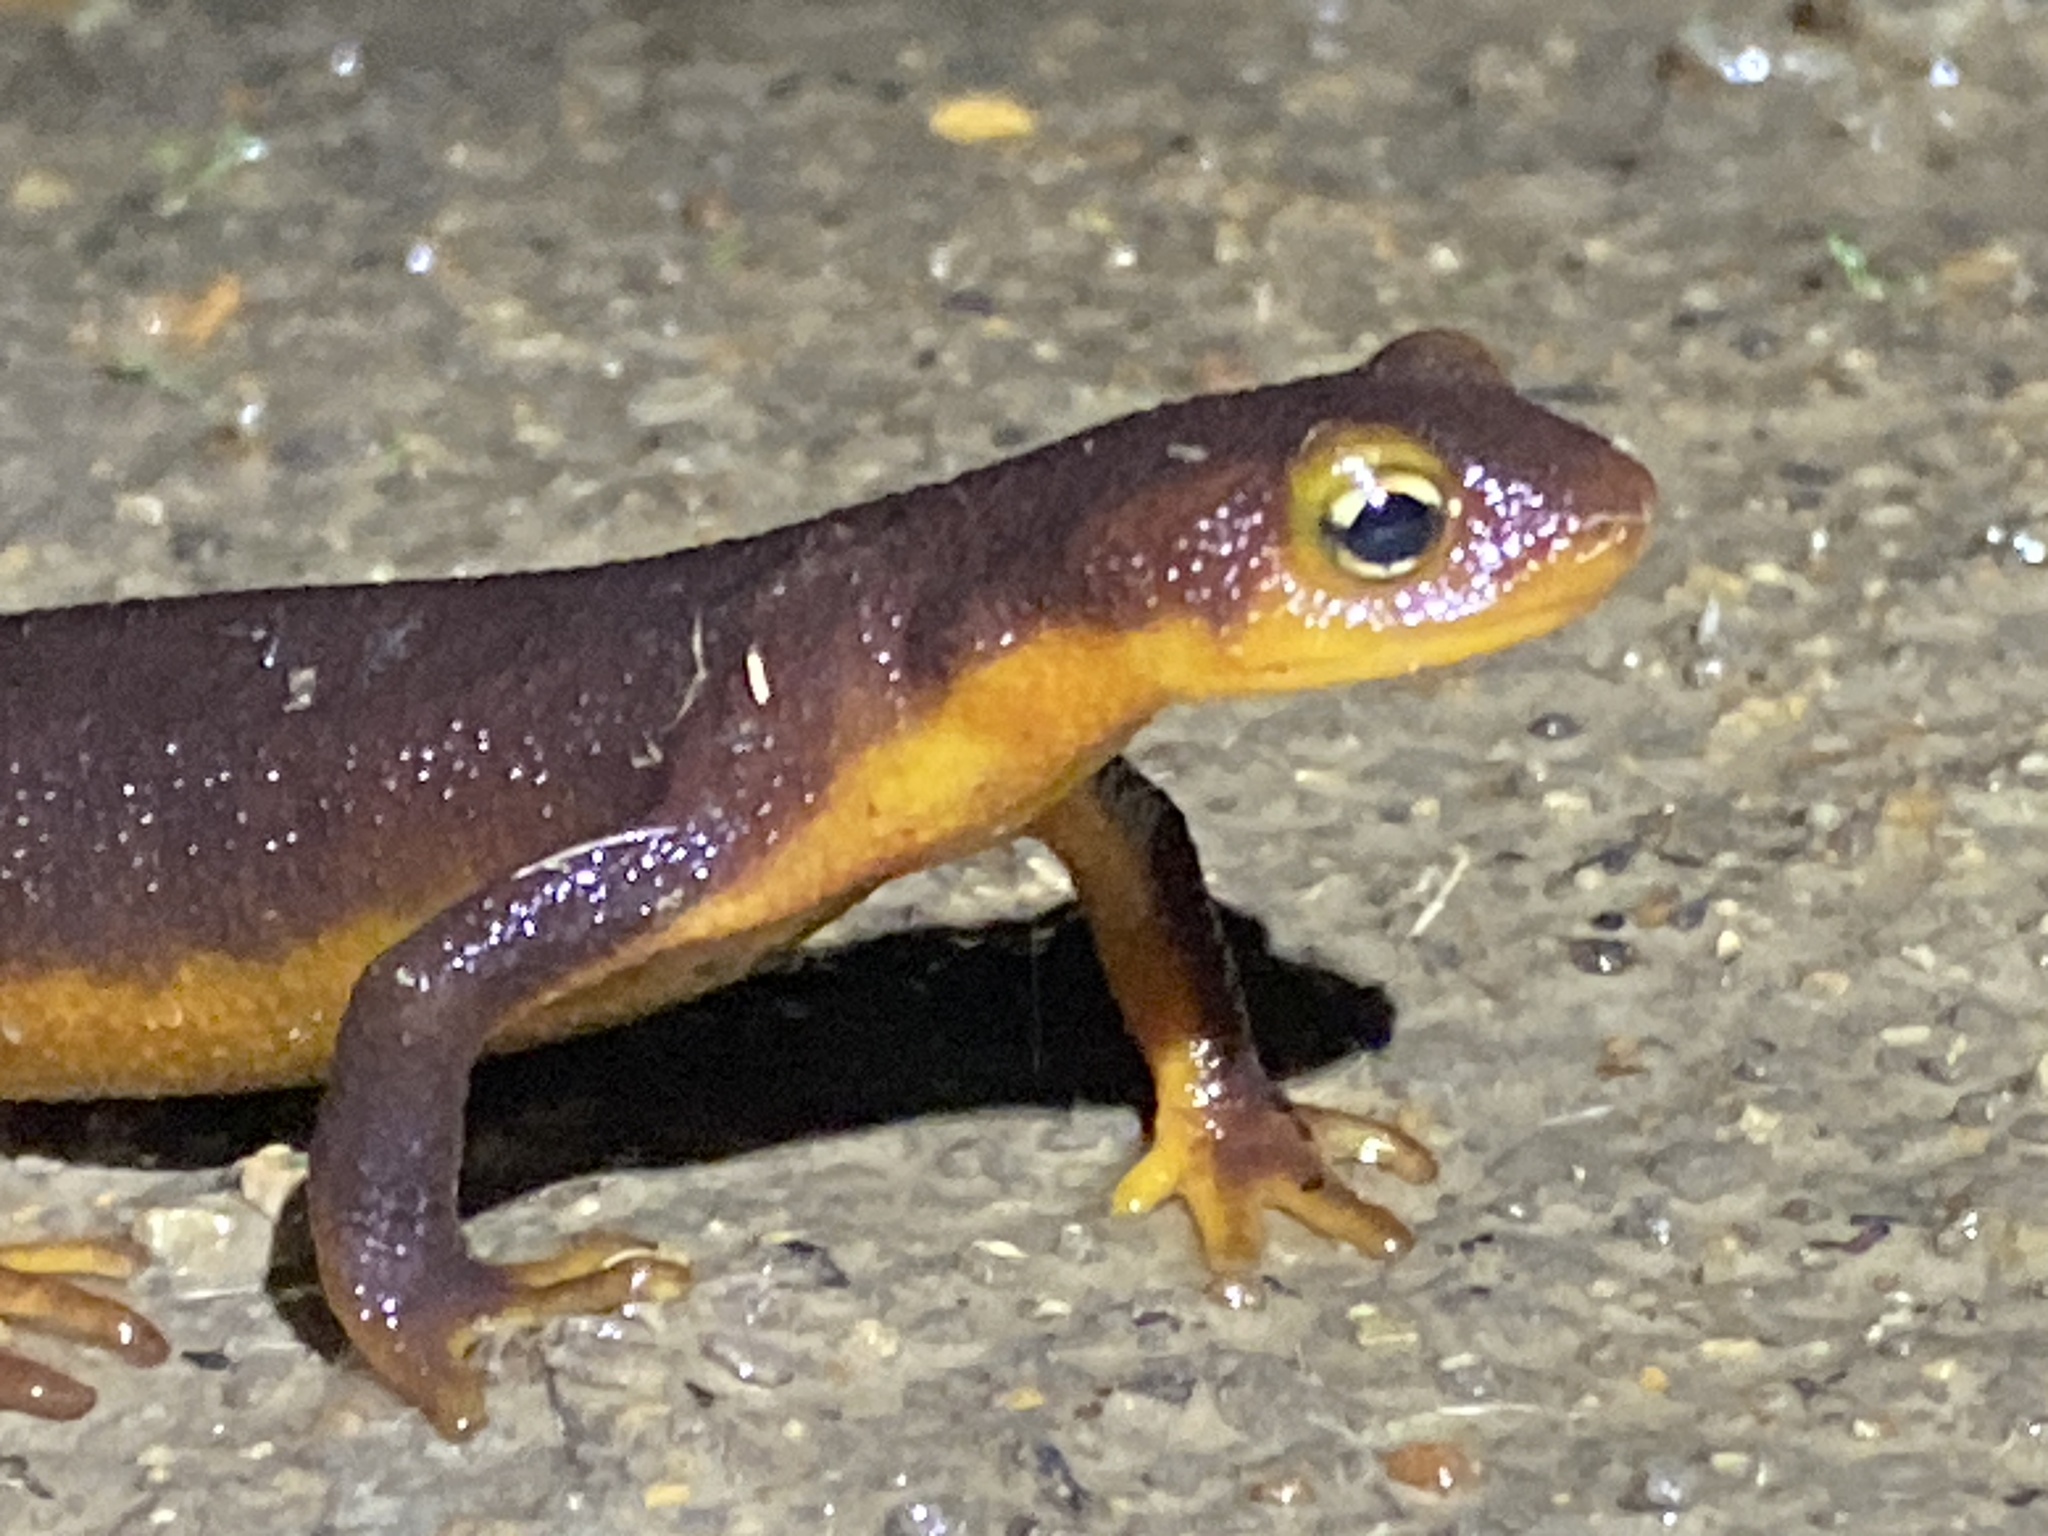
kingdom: Animalia
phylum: Chordata
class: Amphibia
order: Caudata
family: Salamandridae
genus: Taricha
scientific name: Taricha torosa
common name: California newt
